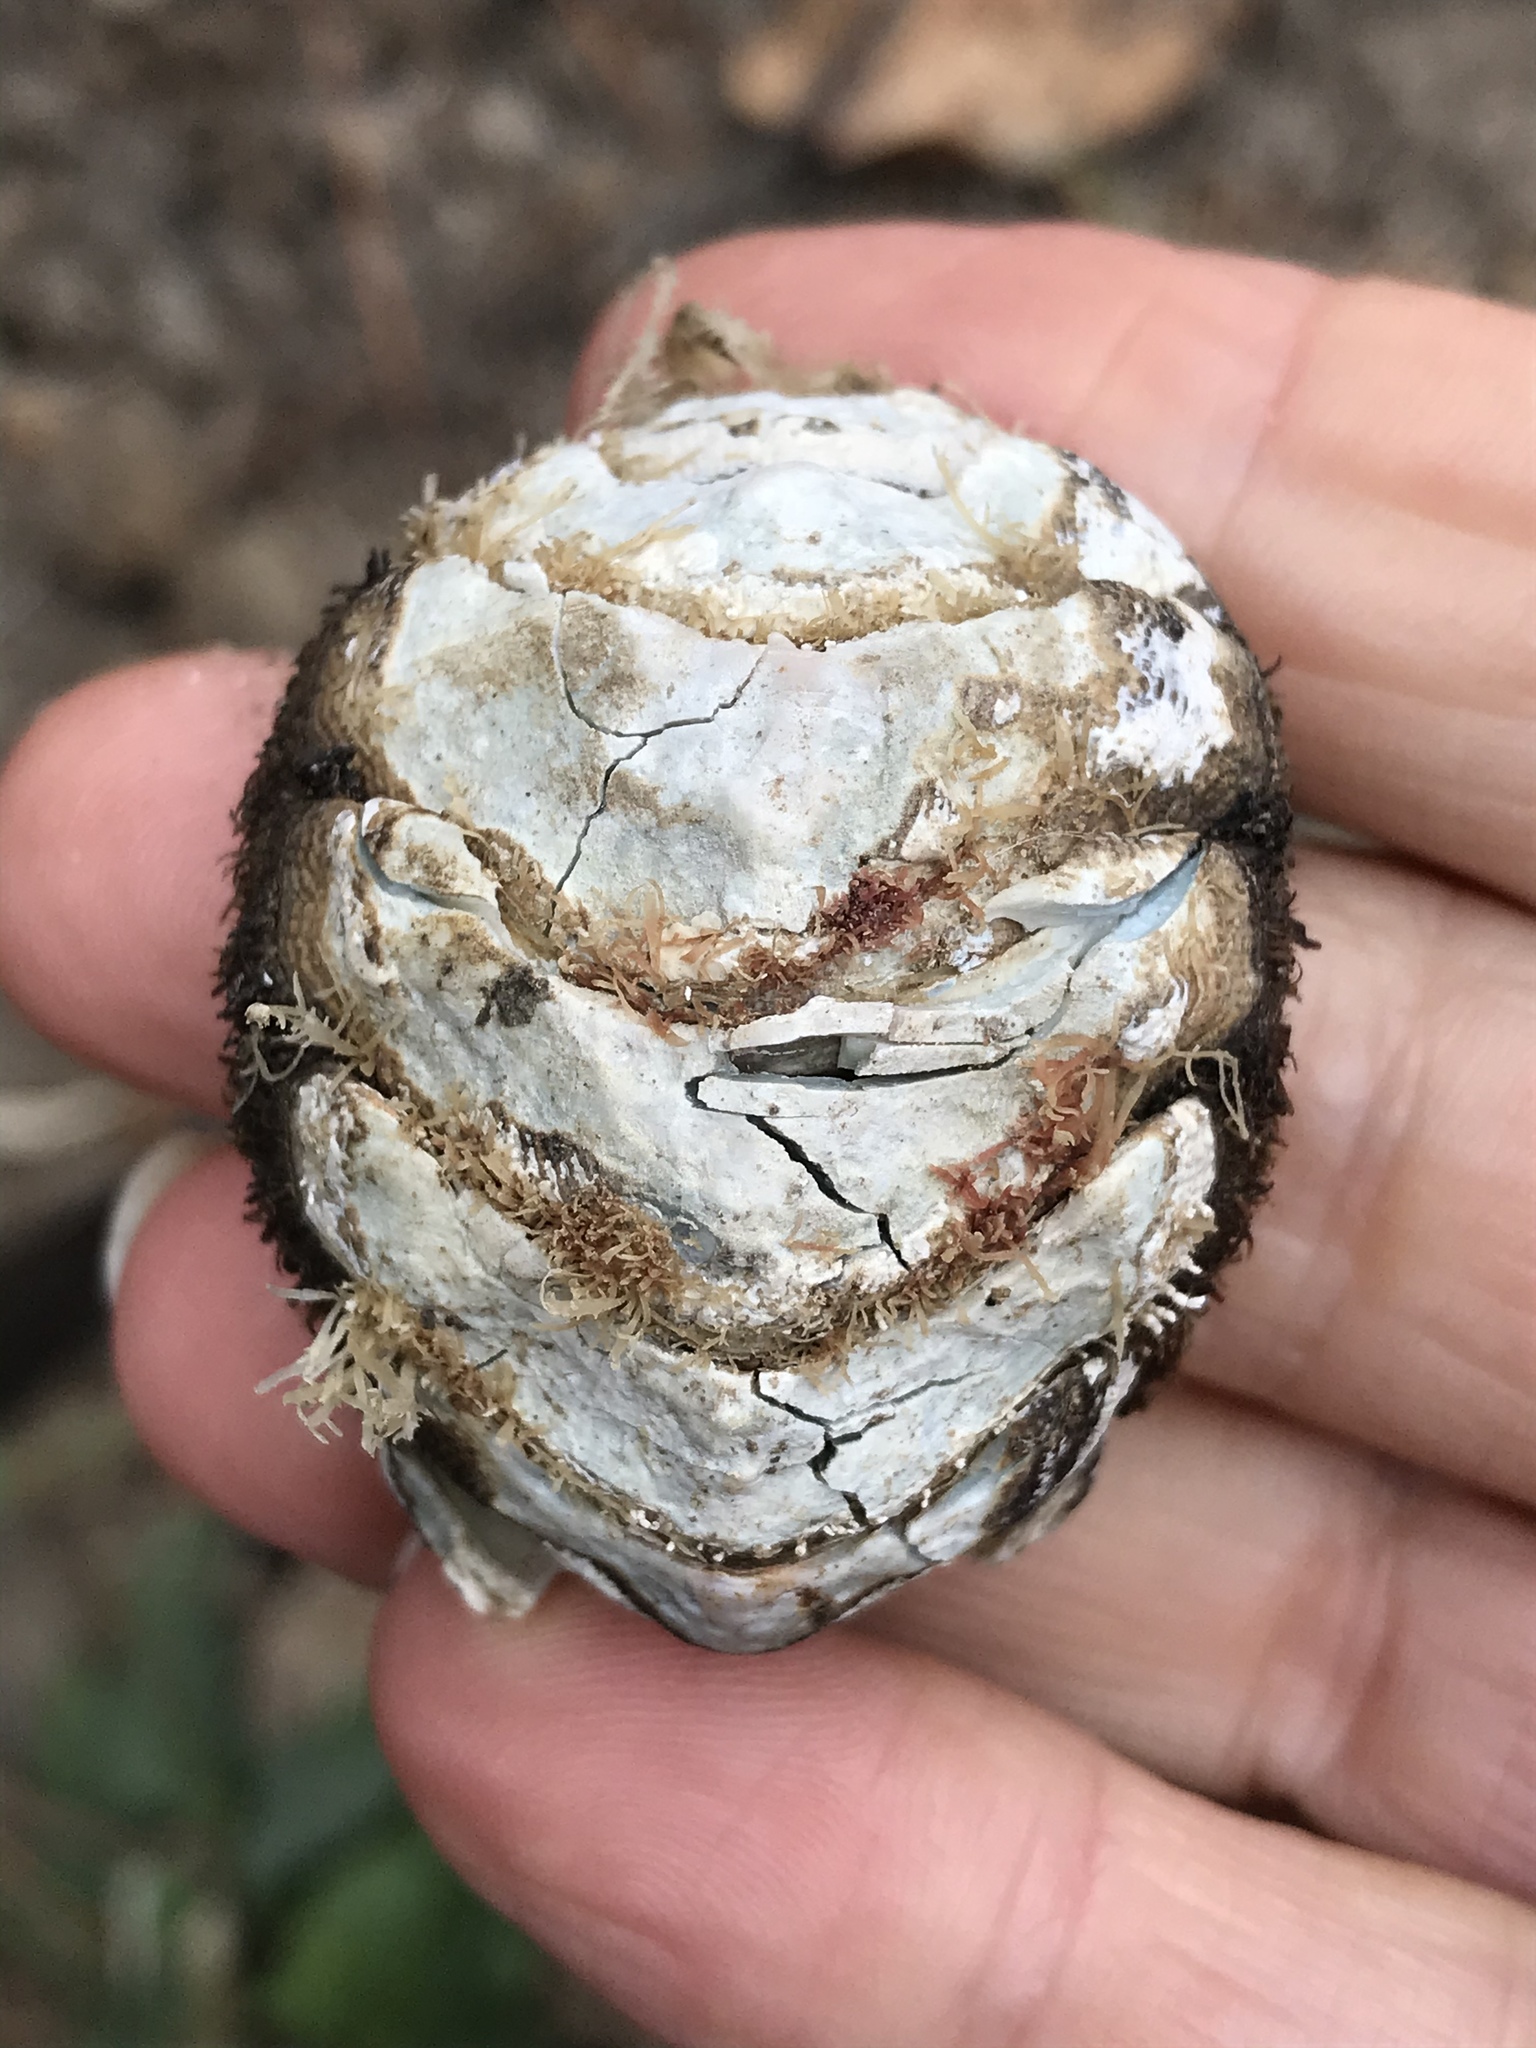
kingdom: Animalia
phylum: Mollusca
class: Polyplacophora
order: Chitonida
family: Mopaliidae
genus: Mopalia
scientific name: Mopalia muscosa
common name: Mossy chiton
